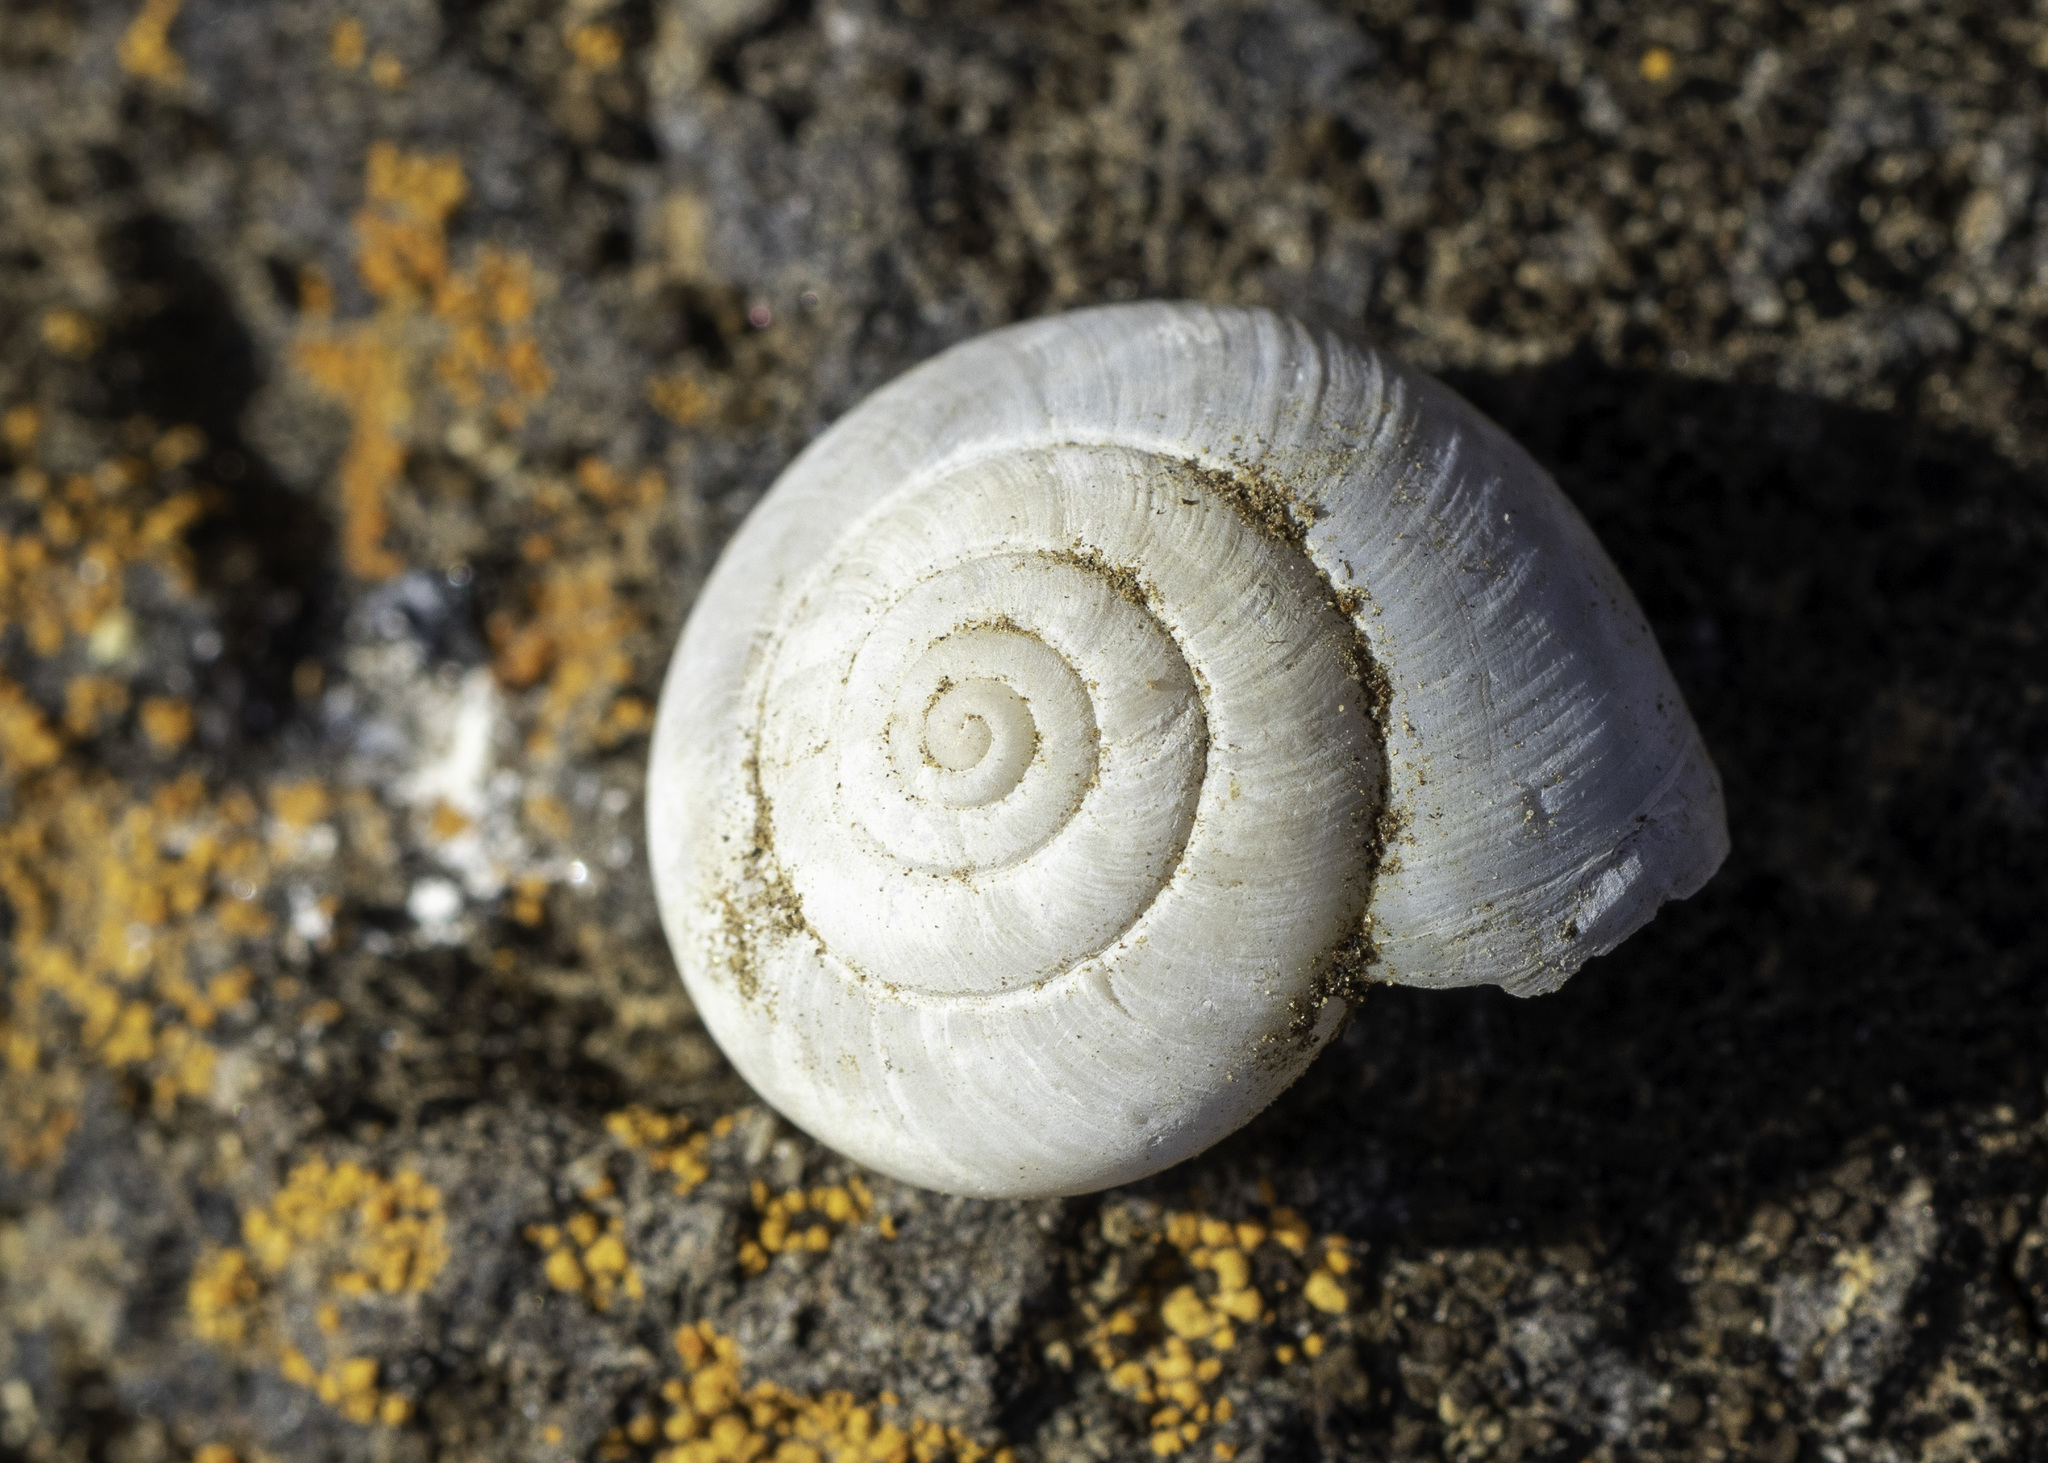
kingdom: Animalia
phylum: Mollusca
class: Gastropoda
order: Stylommatophora
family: Xanthonychidae
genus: Helminthoglypta
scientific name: Helminthoglypta traskii
